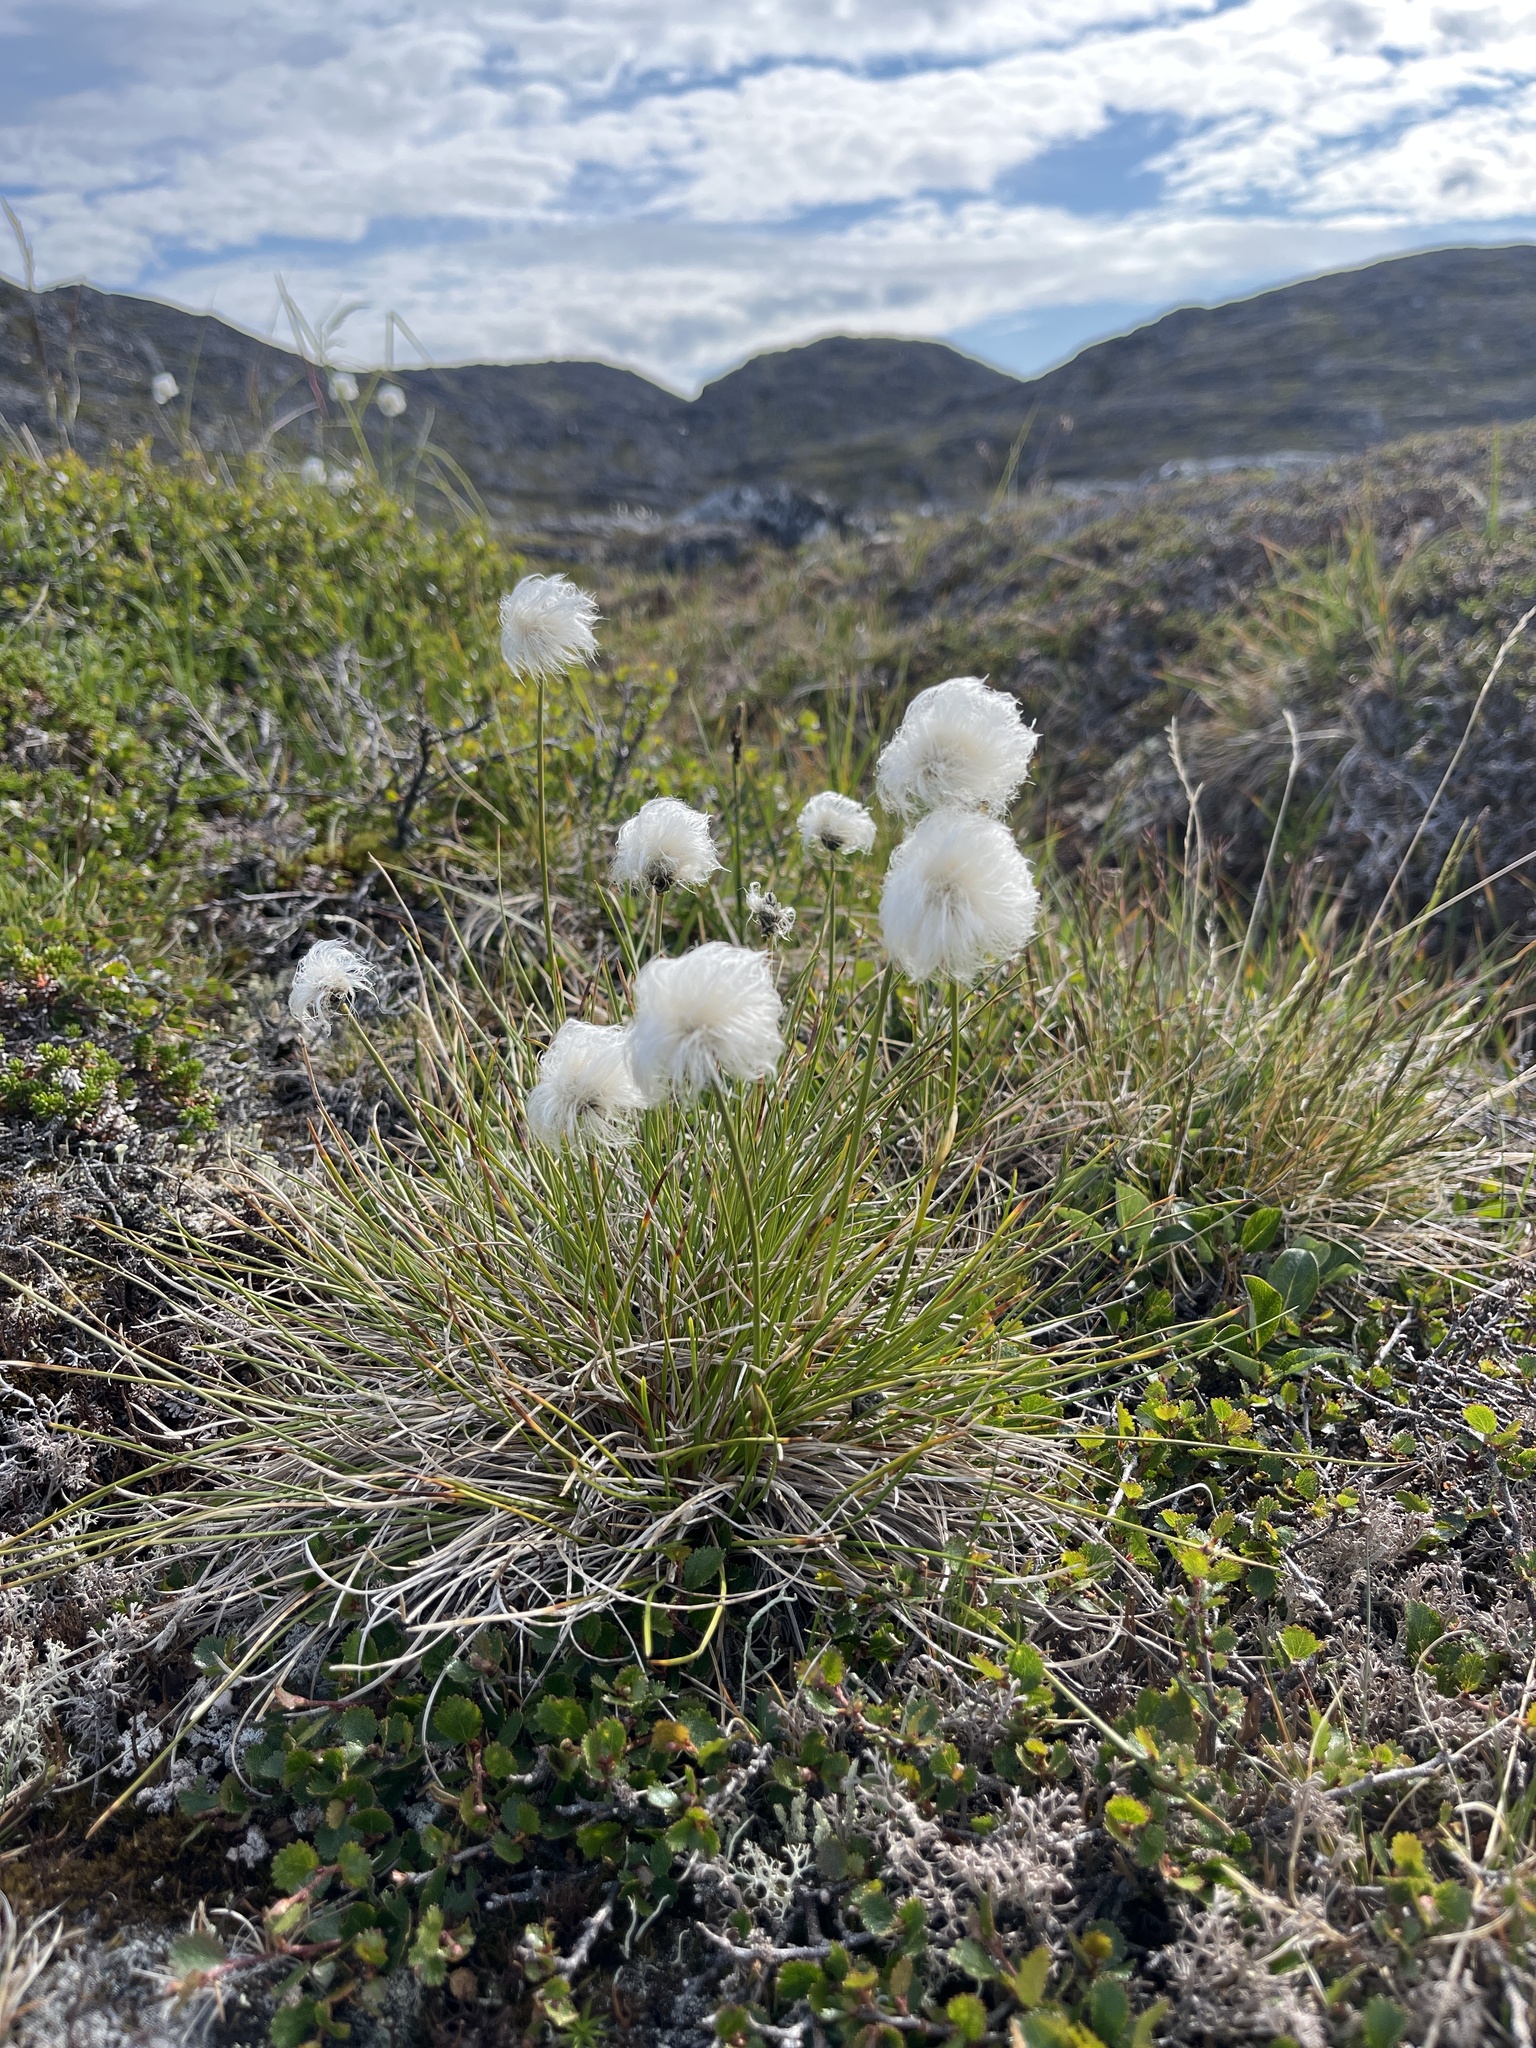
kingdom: Plantae
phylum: Tracheophyta
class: Liliopsida
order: Poales
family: Cyperaceae
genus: Eriophorum
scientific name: Eriophorum vaginatum
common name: Hare's-tail cottongrass
